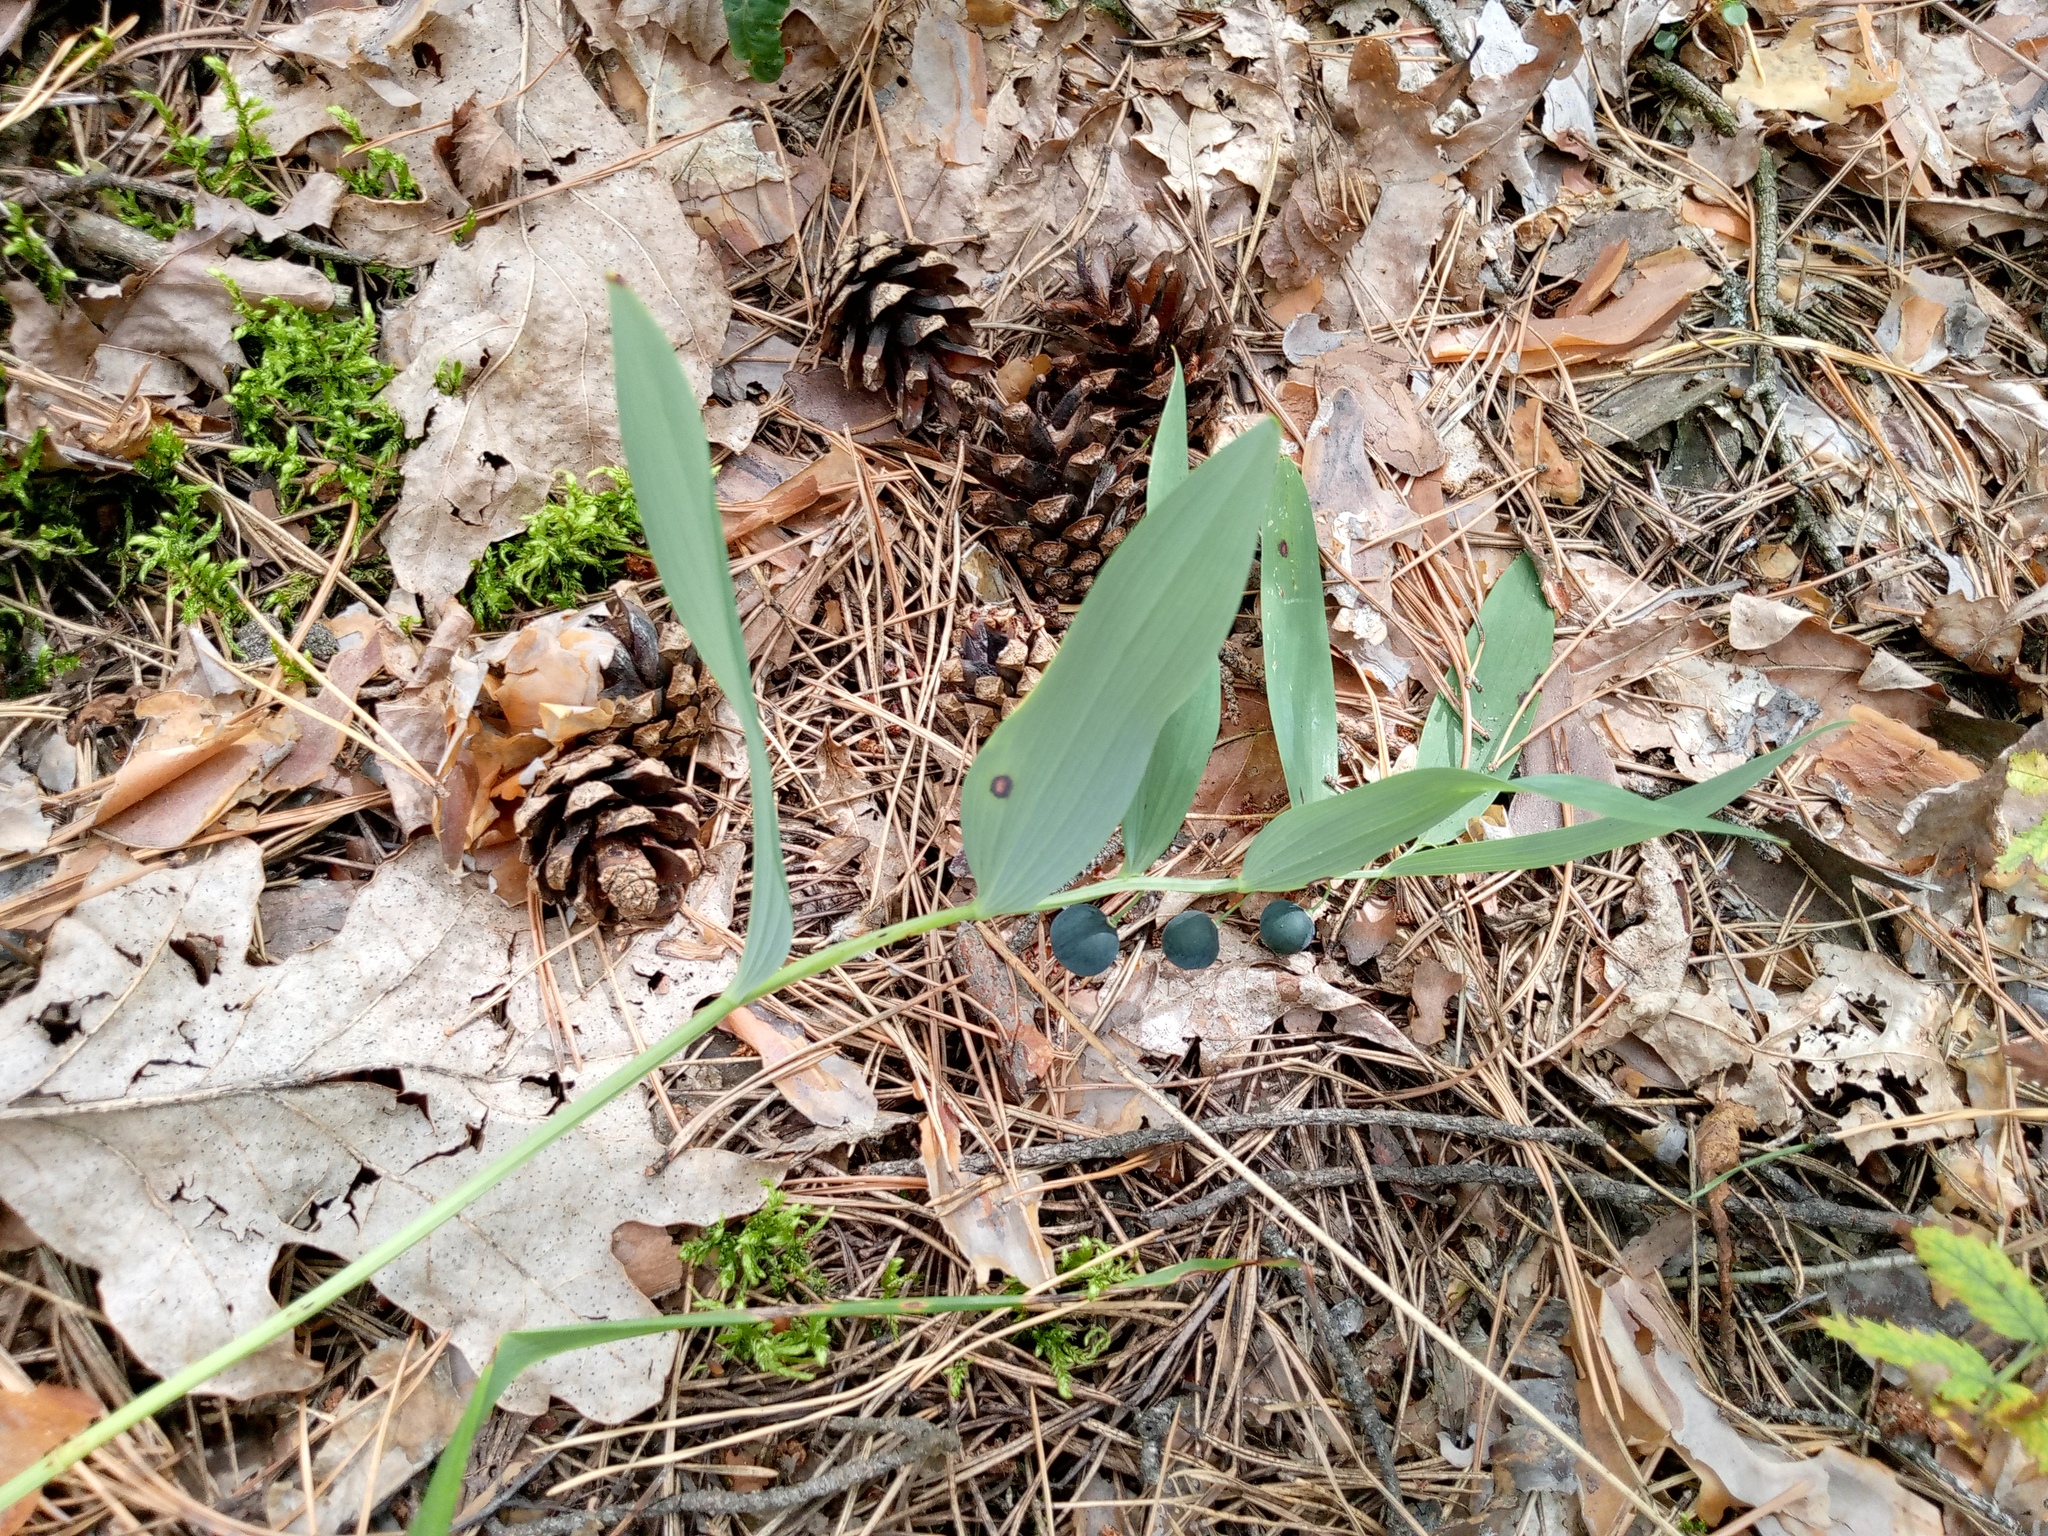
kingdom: Plantae
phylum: Tracheophyta
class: Liliopsida
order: Asparagales
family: Asparagaceae
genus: Polygonatum
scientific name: Polygonatum odoratum
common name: Angular solomon's-seal
